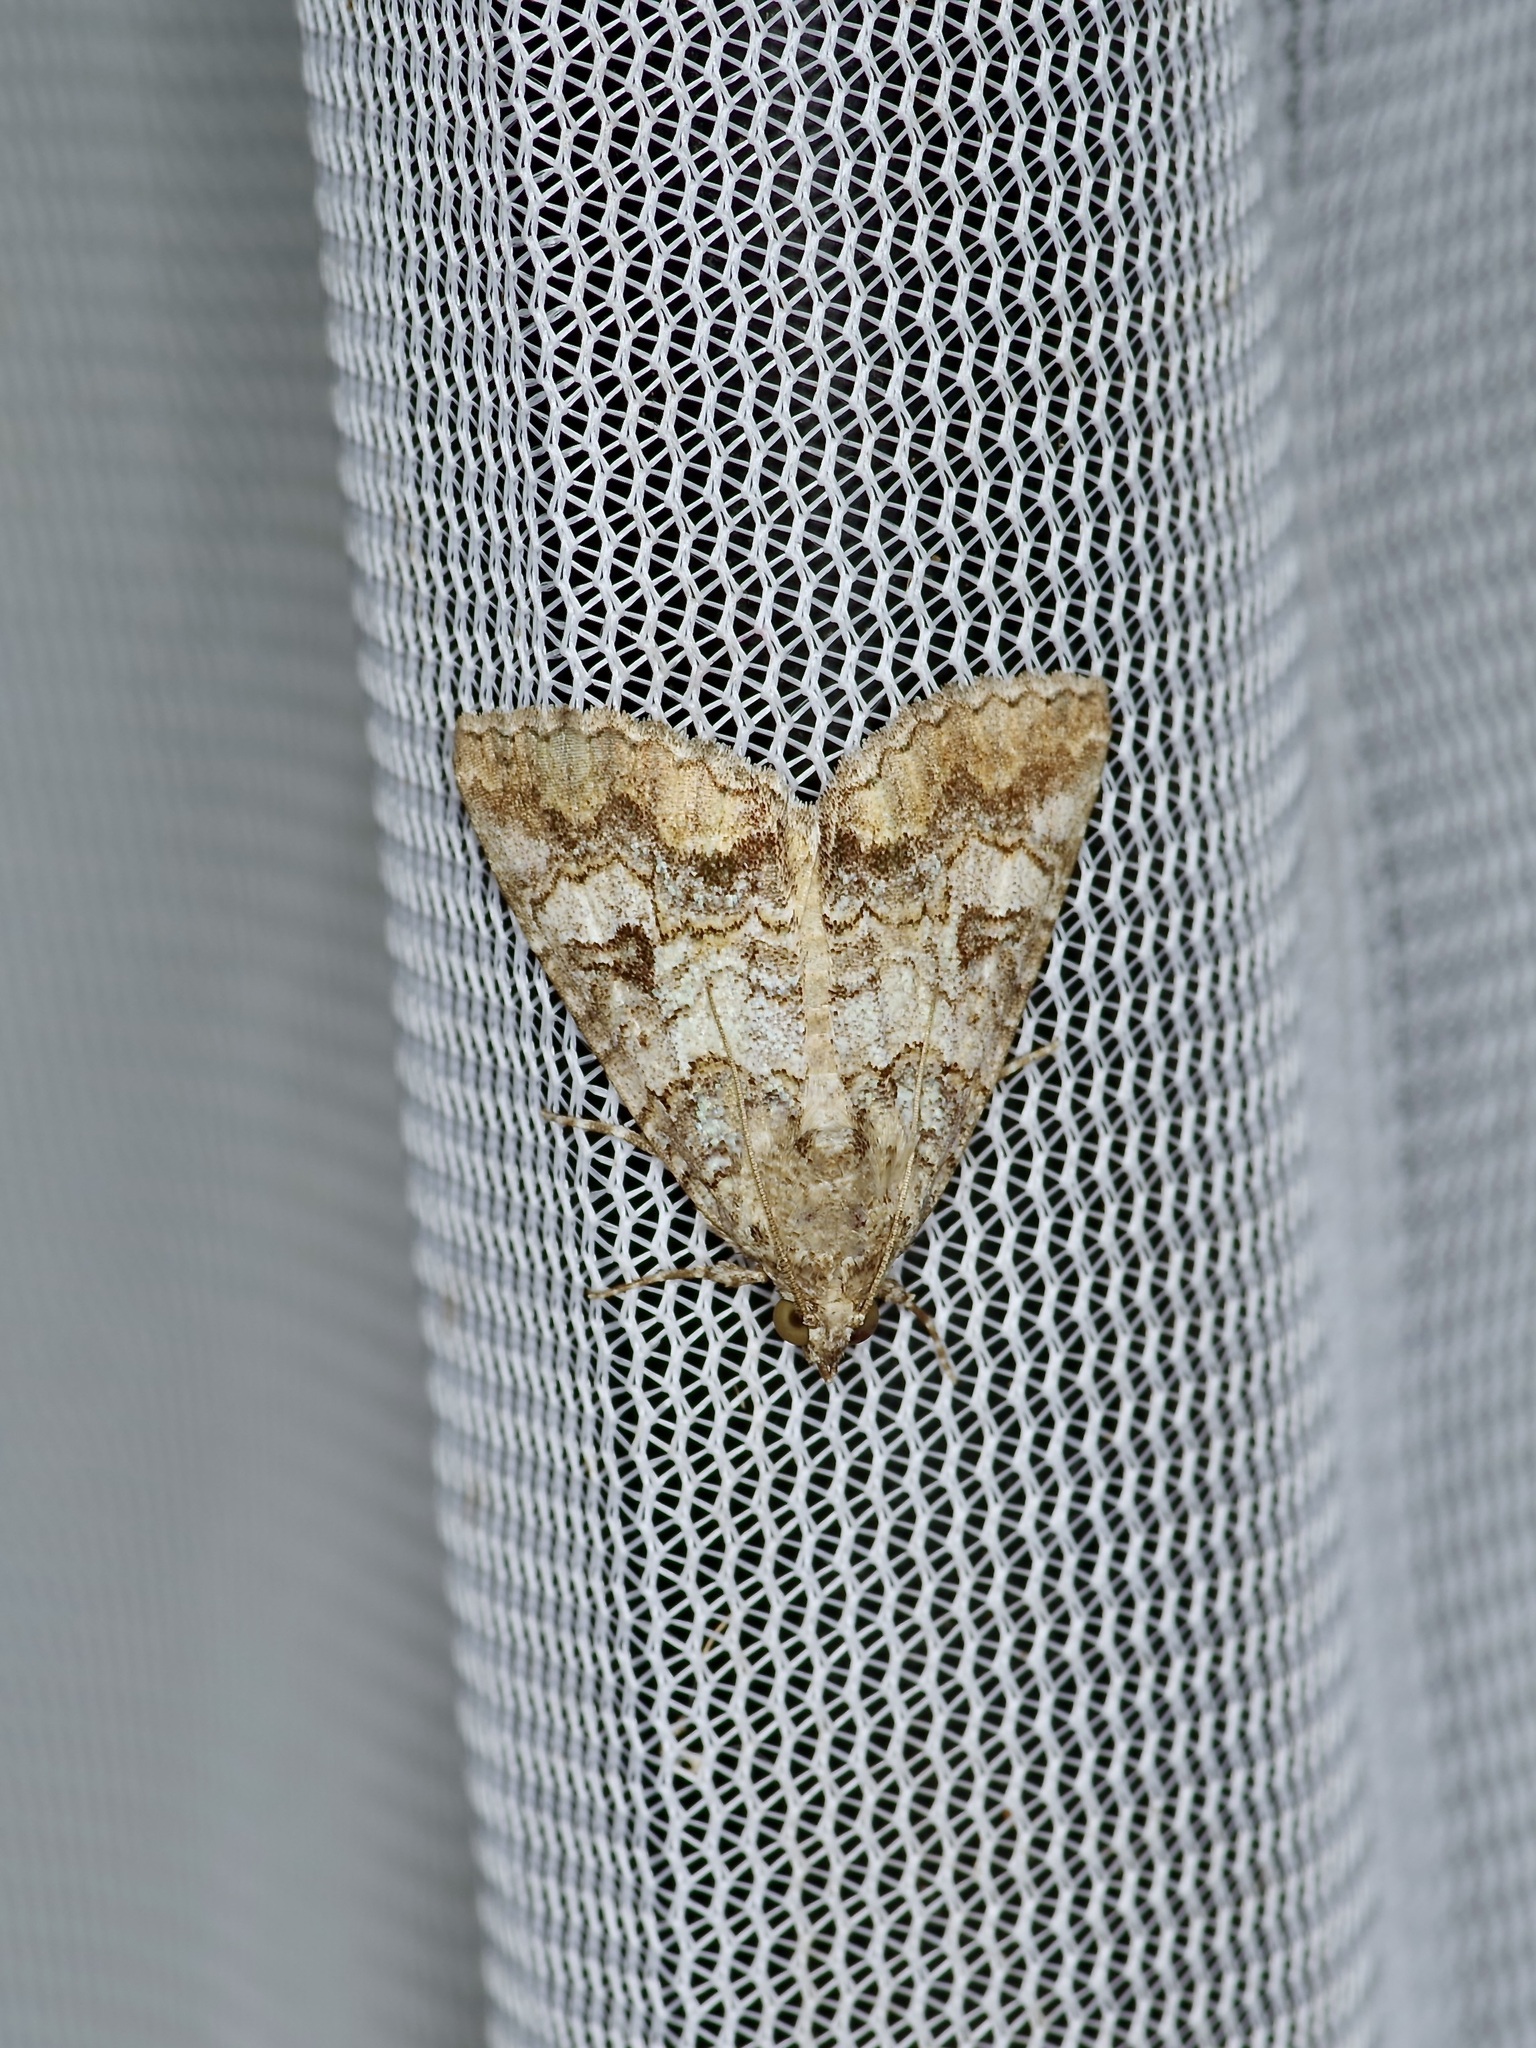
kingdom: Animalia
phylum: Arthropoda
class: Insecta
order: Lepidoptera
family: Erebidae
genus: Eubolina
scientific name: Eubolina impartialis
